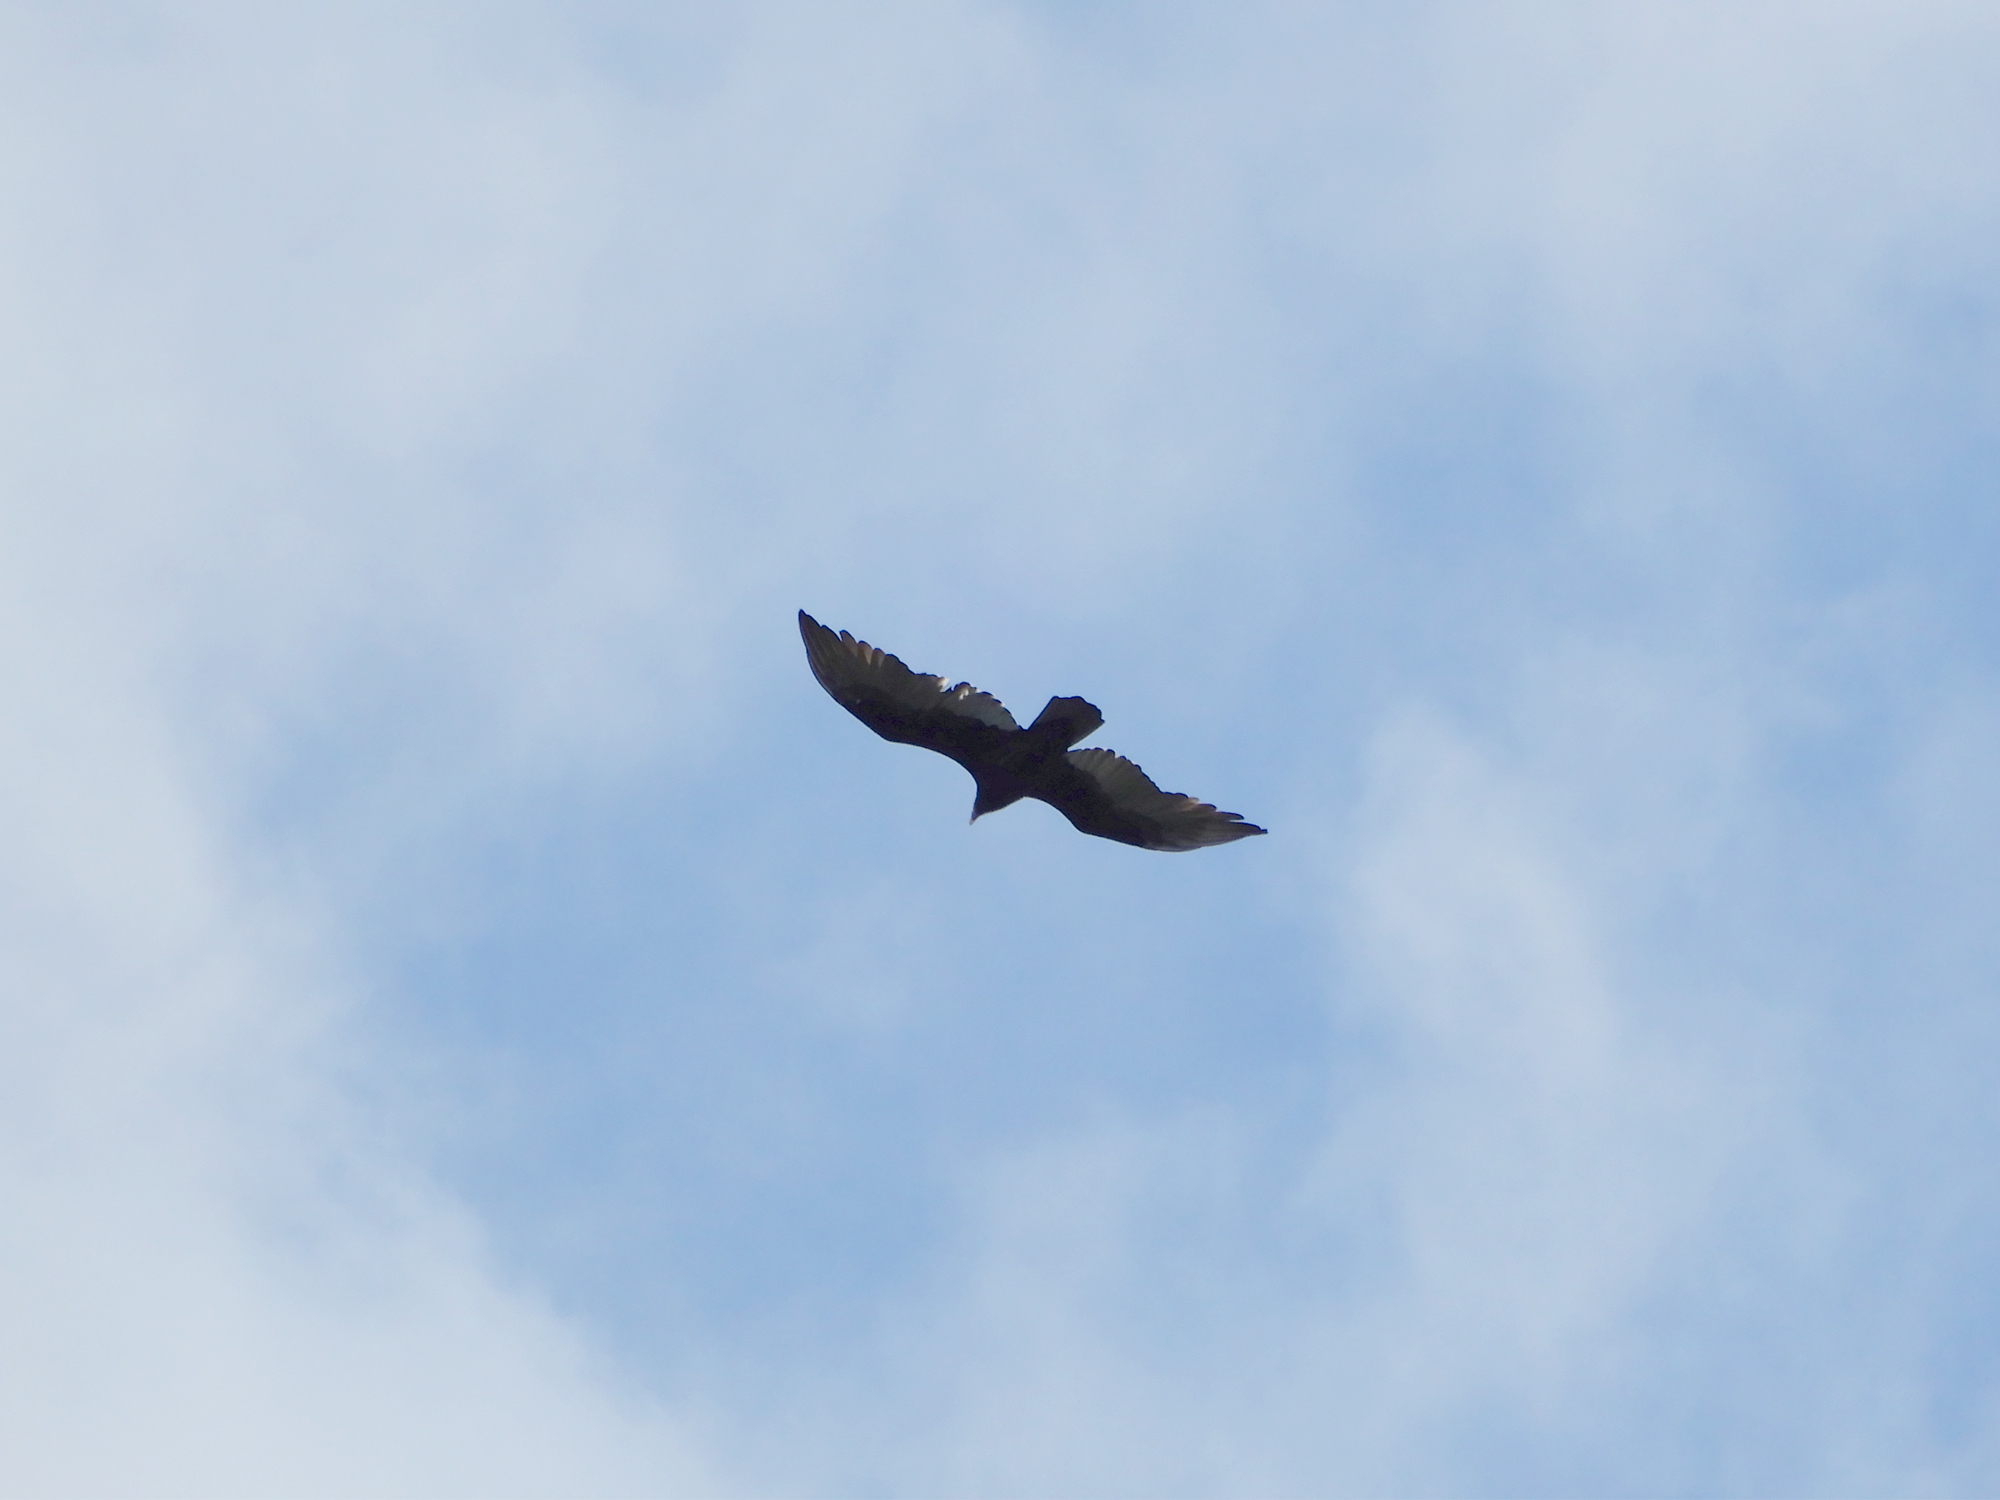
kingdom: Animalia
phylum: Chordata
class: Aves
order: Accipitriformes
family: Cathartidae
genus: Cathartes
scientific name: Cathartes aura
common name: Turkey vulture
